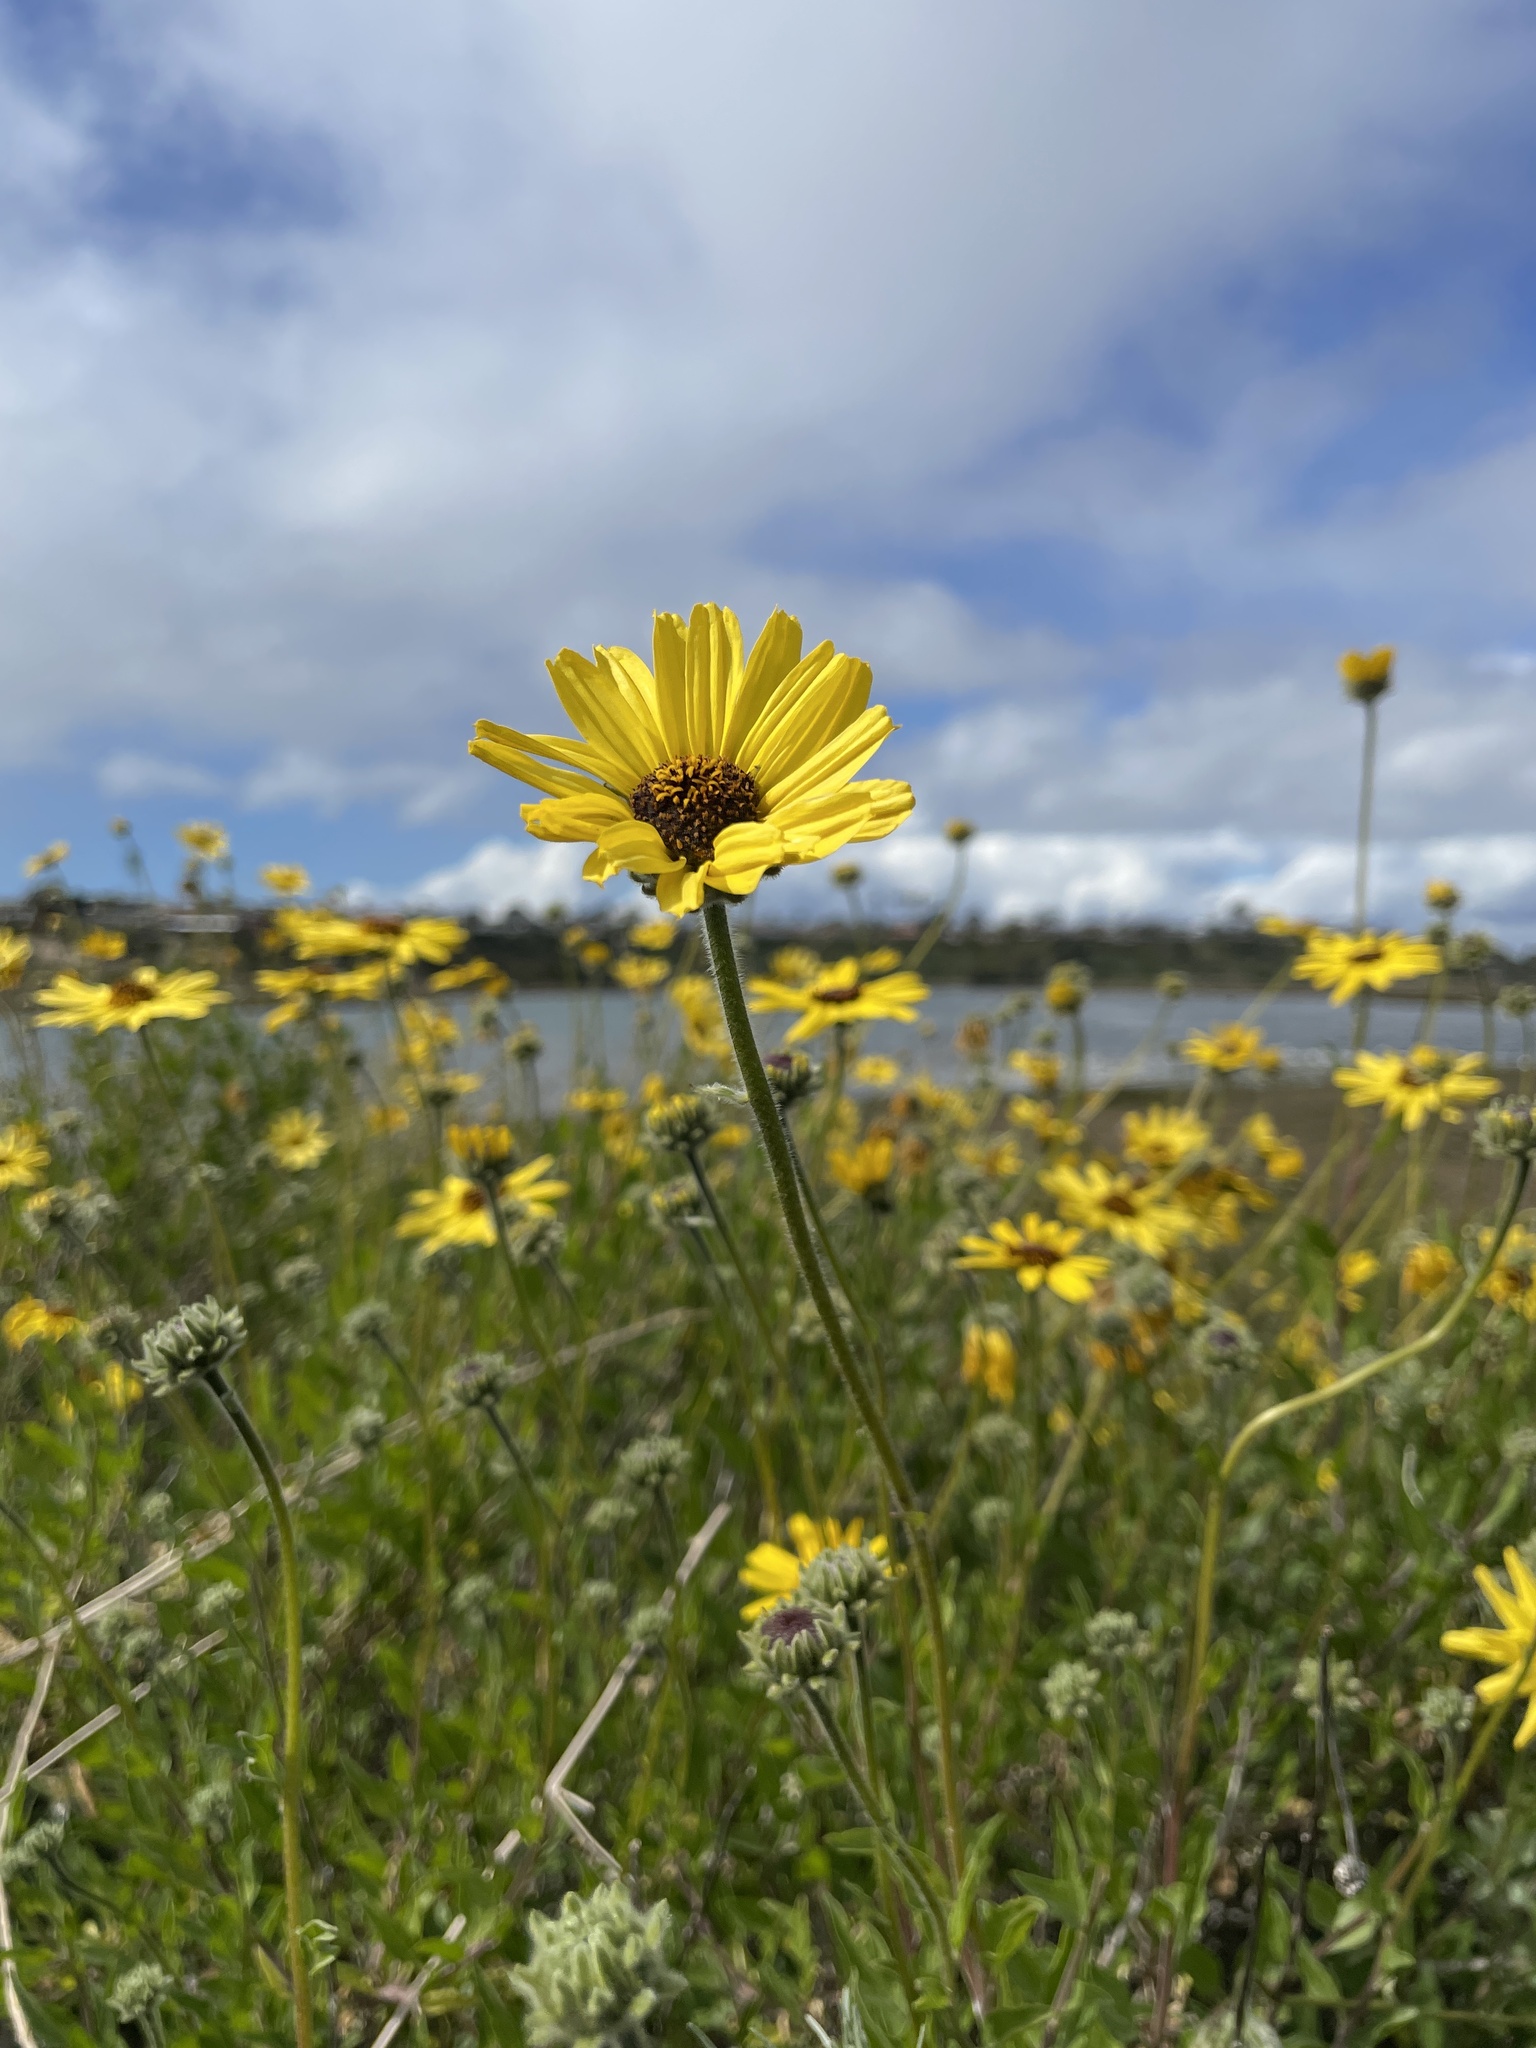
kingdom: Plantae
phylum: Tracheophyta
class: Magnoliopsida
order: Asterales
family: Asteraceae
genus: Encelia
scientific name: Encelia californica
